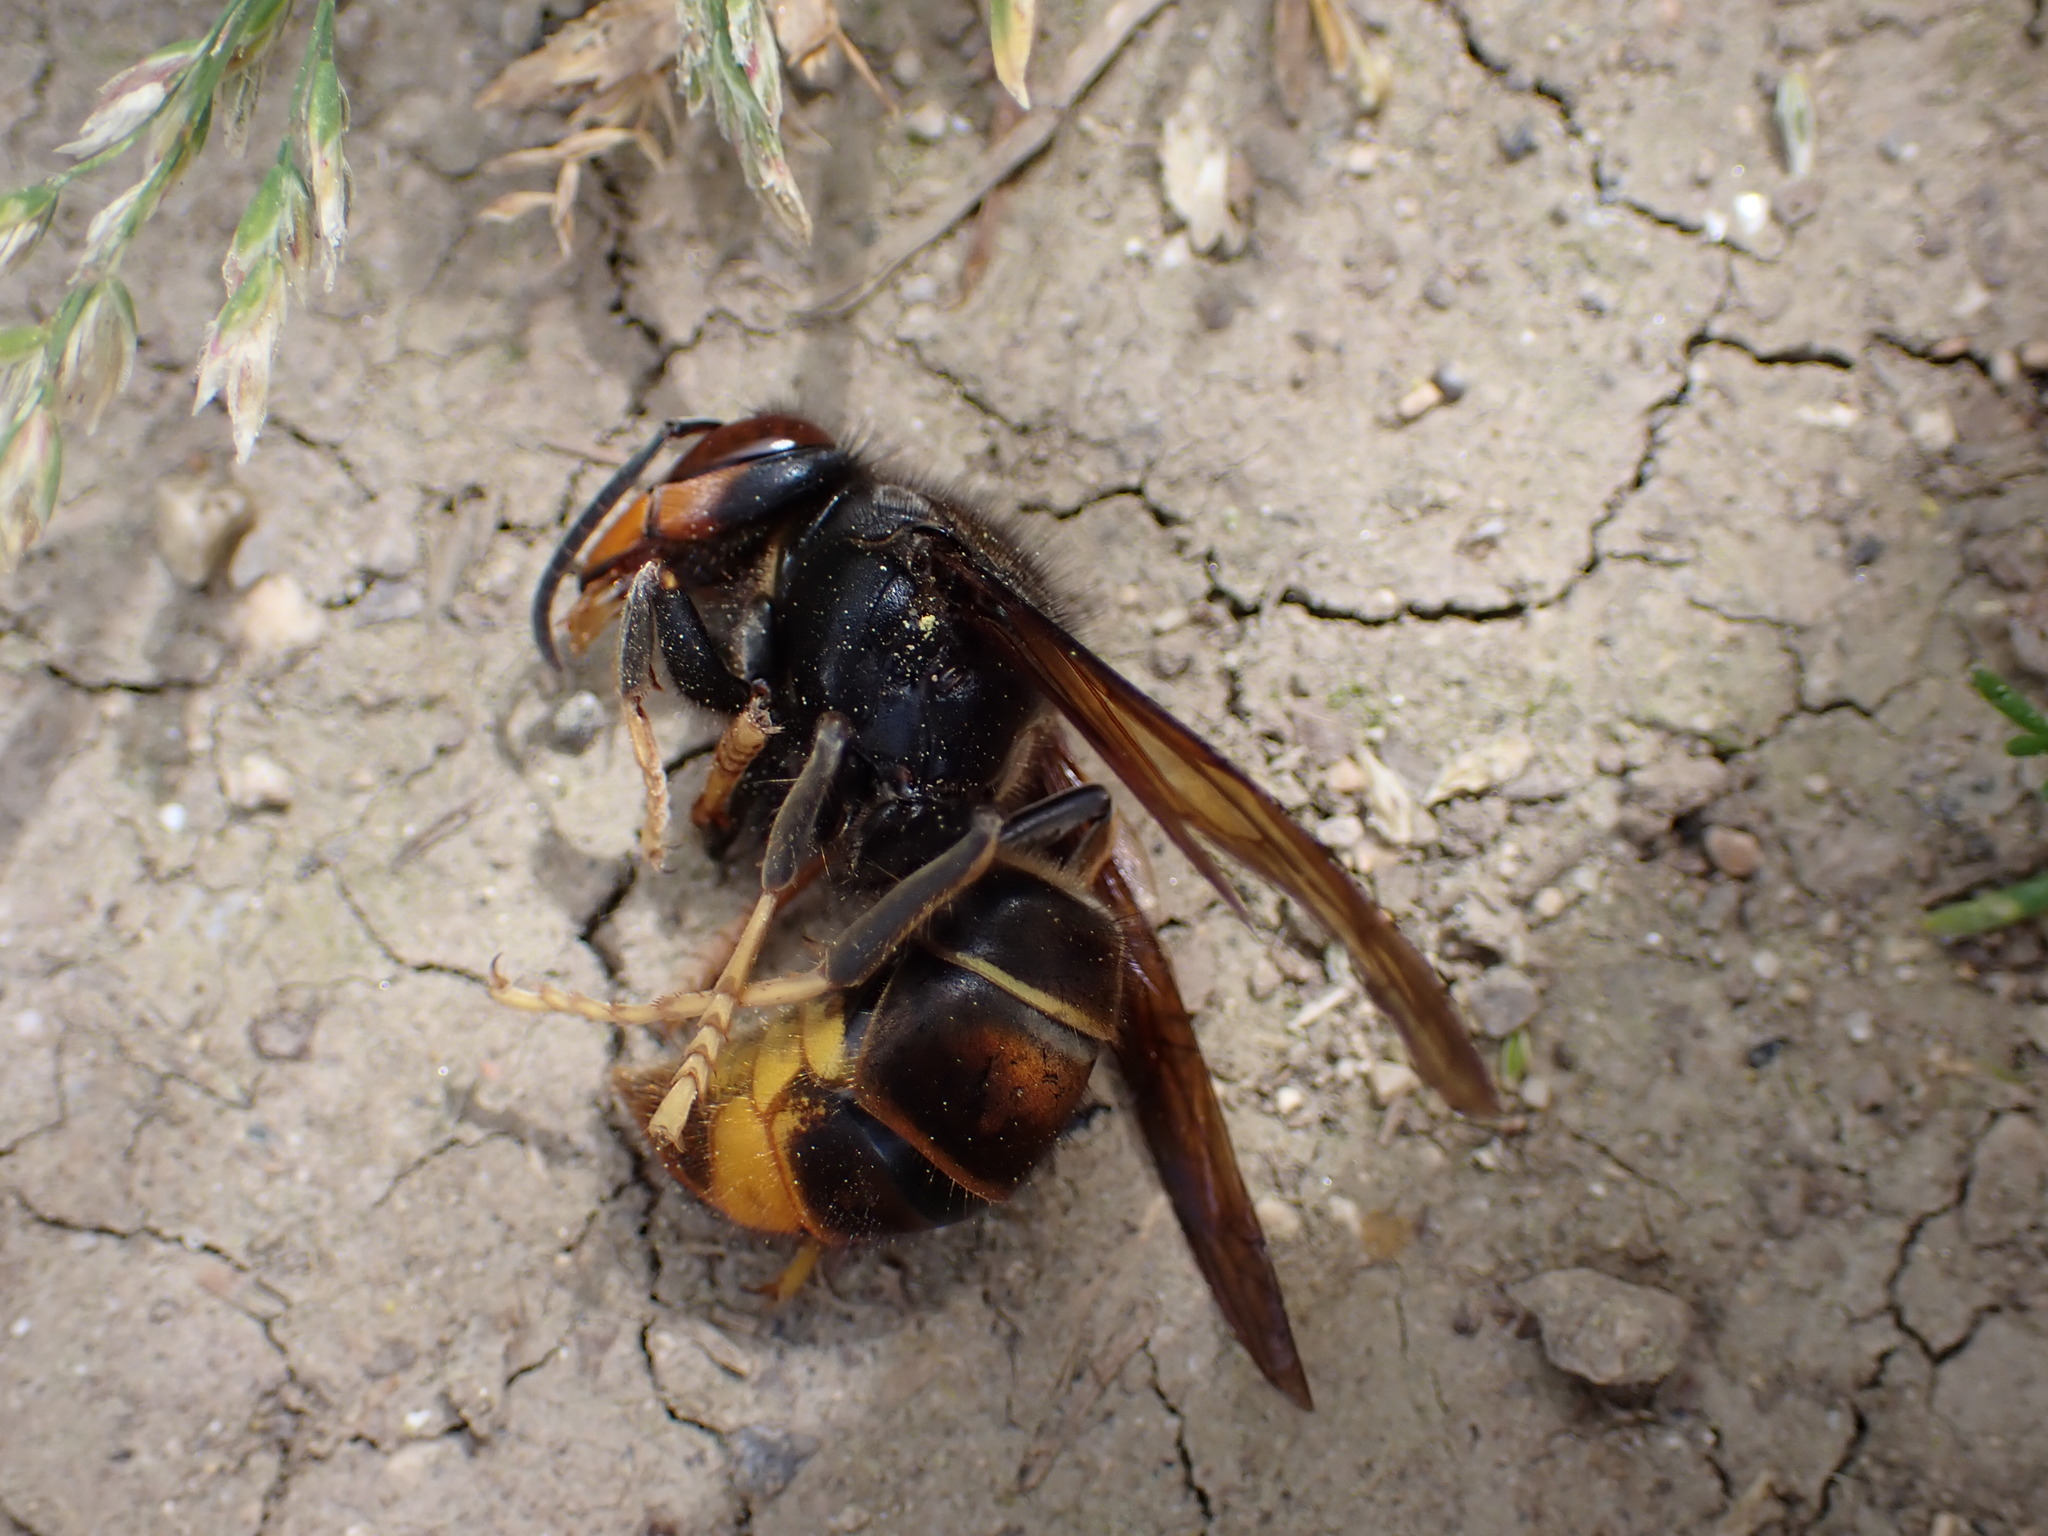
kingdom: Animalia
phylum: Arthropoda
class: Insecta
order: Hymenoptera
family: Vespidae
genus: Vespa
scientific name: Vespa velutina
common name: Asian hornet
